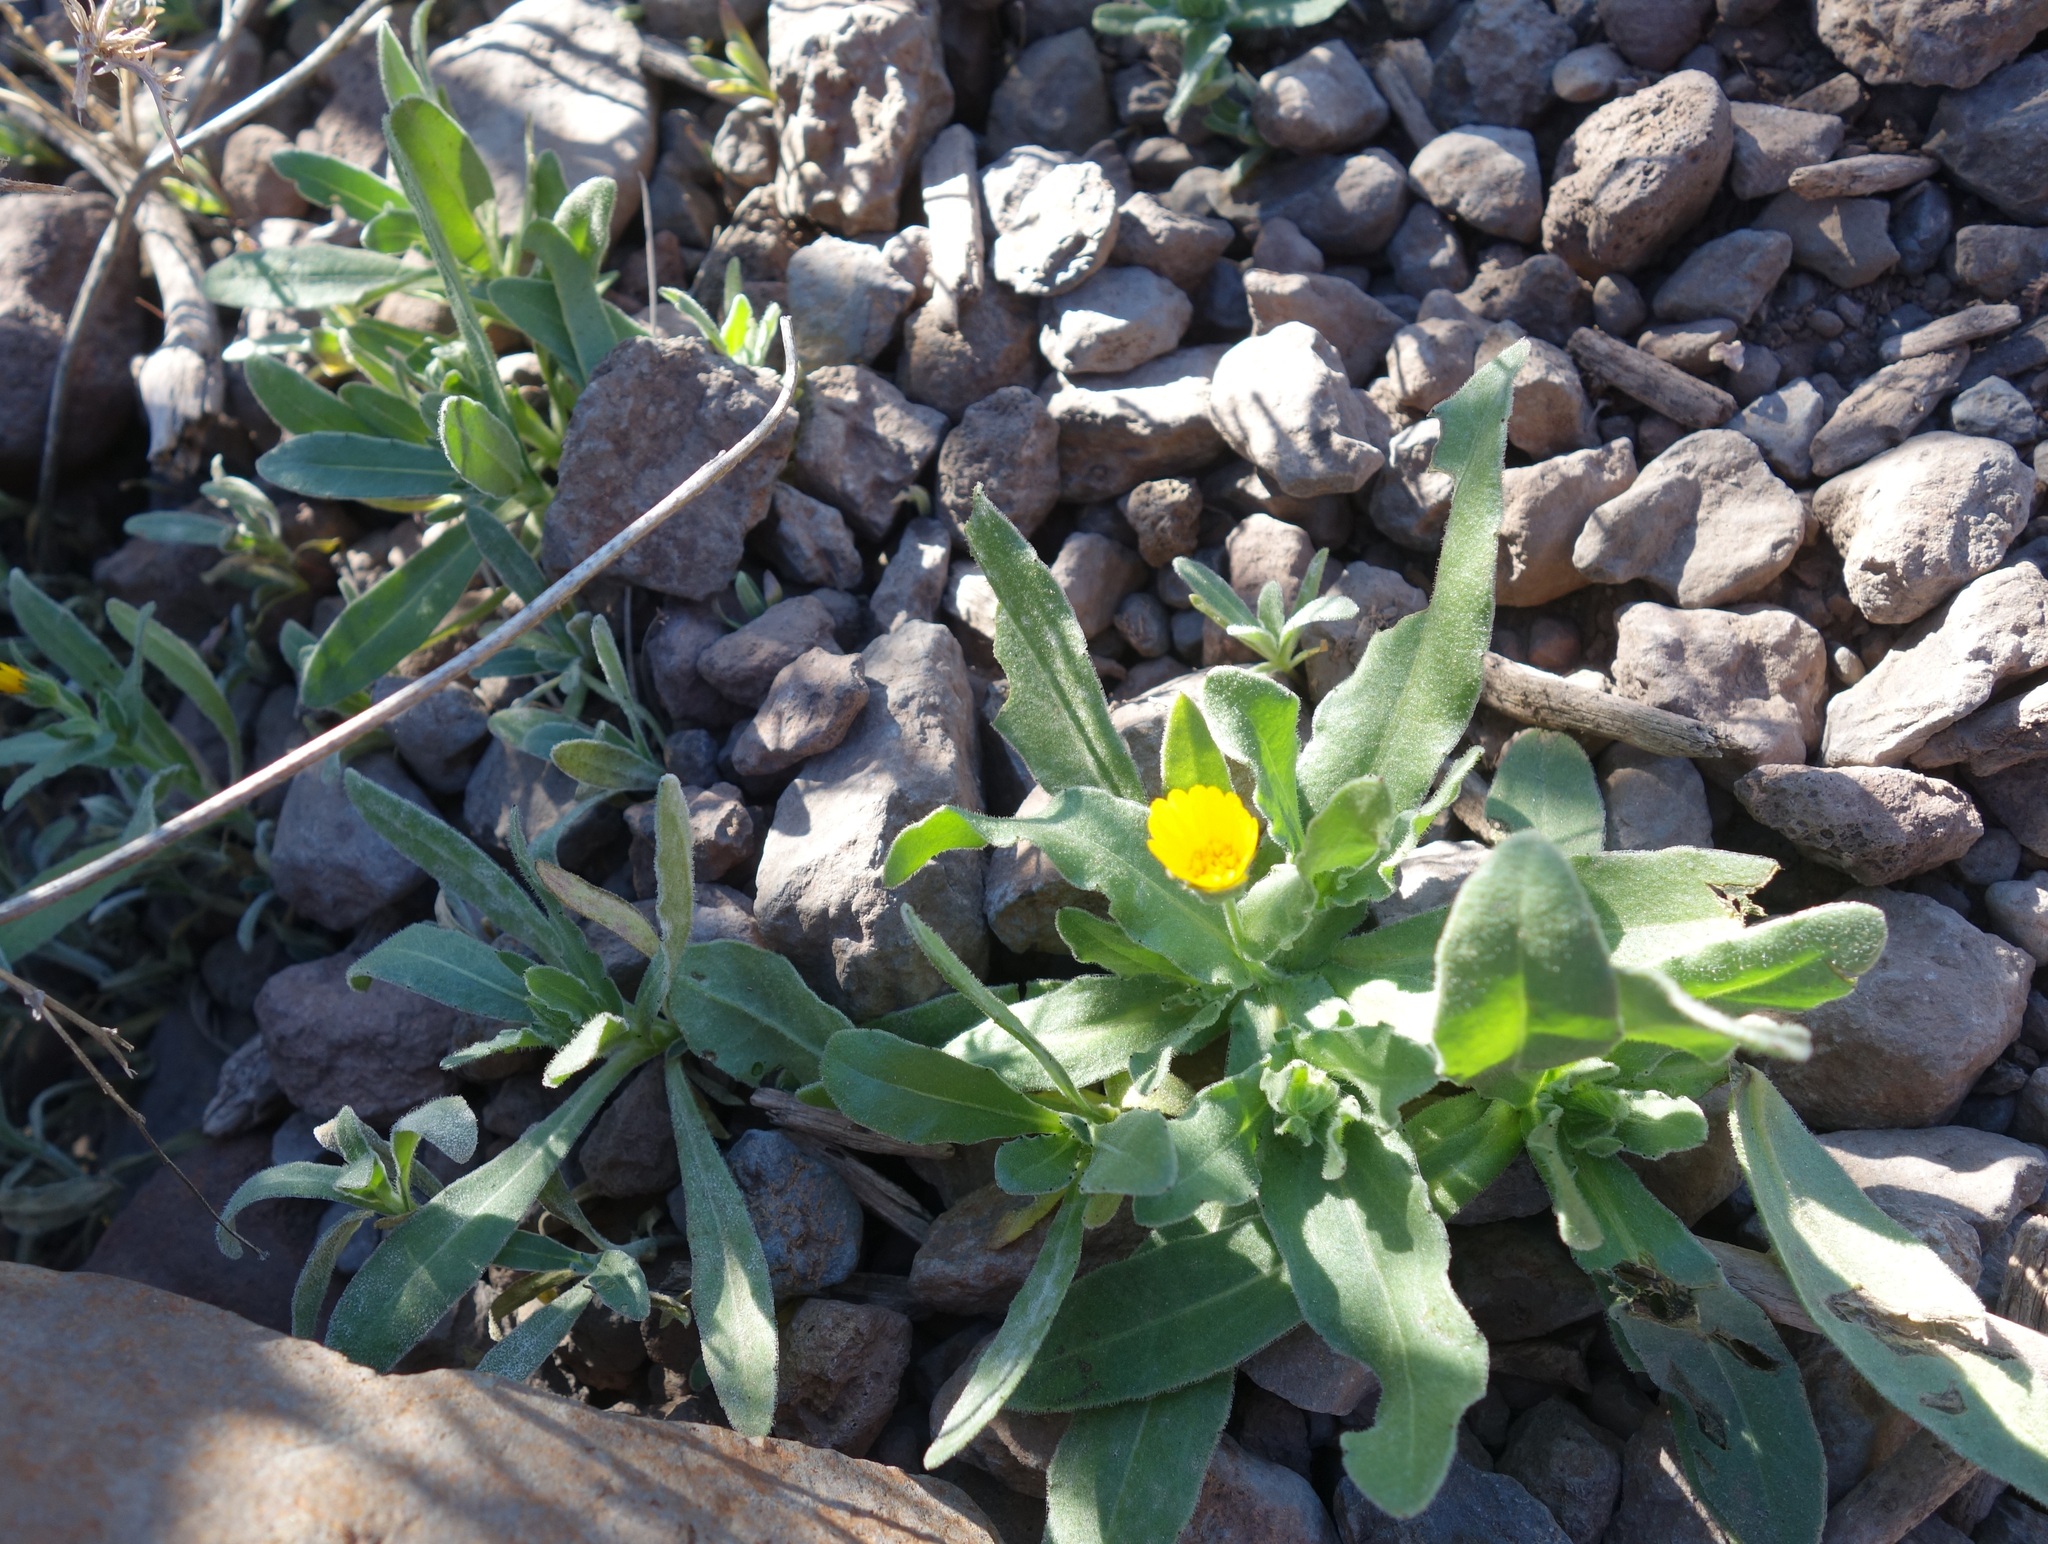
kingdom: Plantae
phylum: Tracheophyta
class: Magnoliopsida
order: Asterales
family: Asteraceae
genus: Calendula
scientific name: Calendula arvensis
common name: Field marigold
